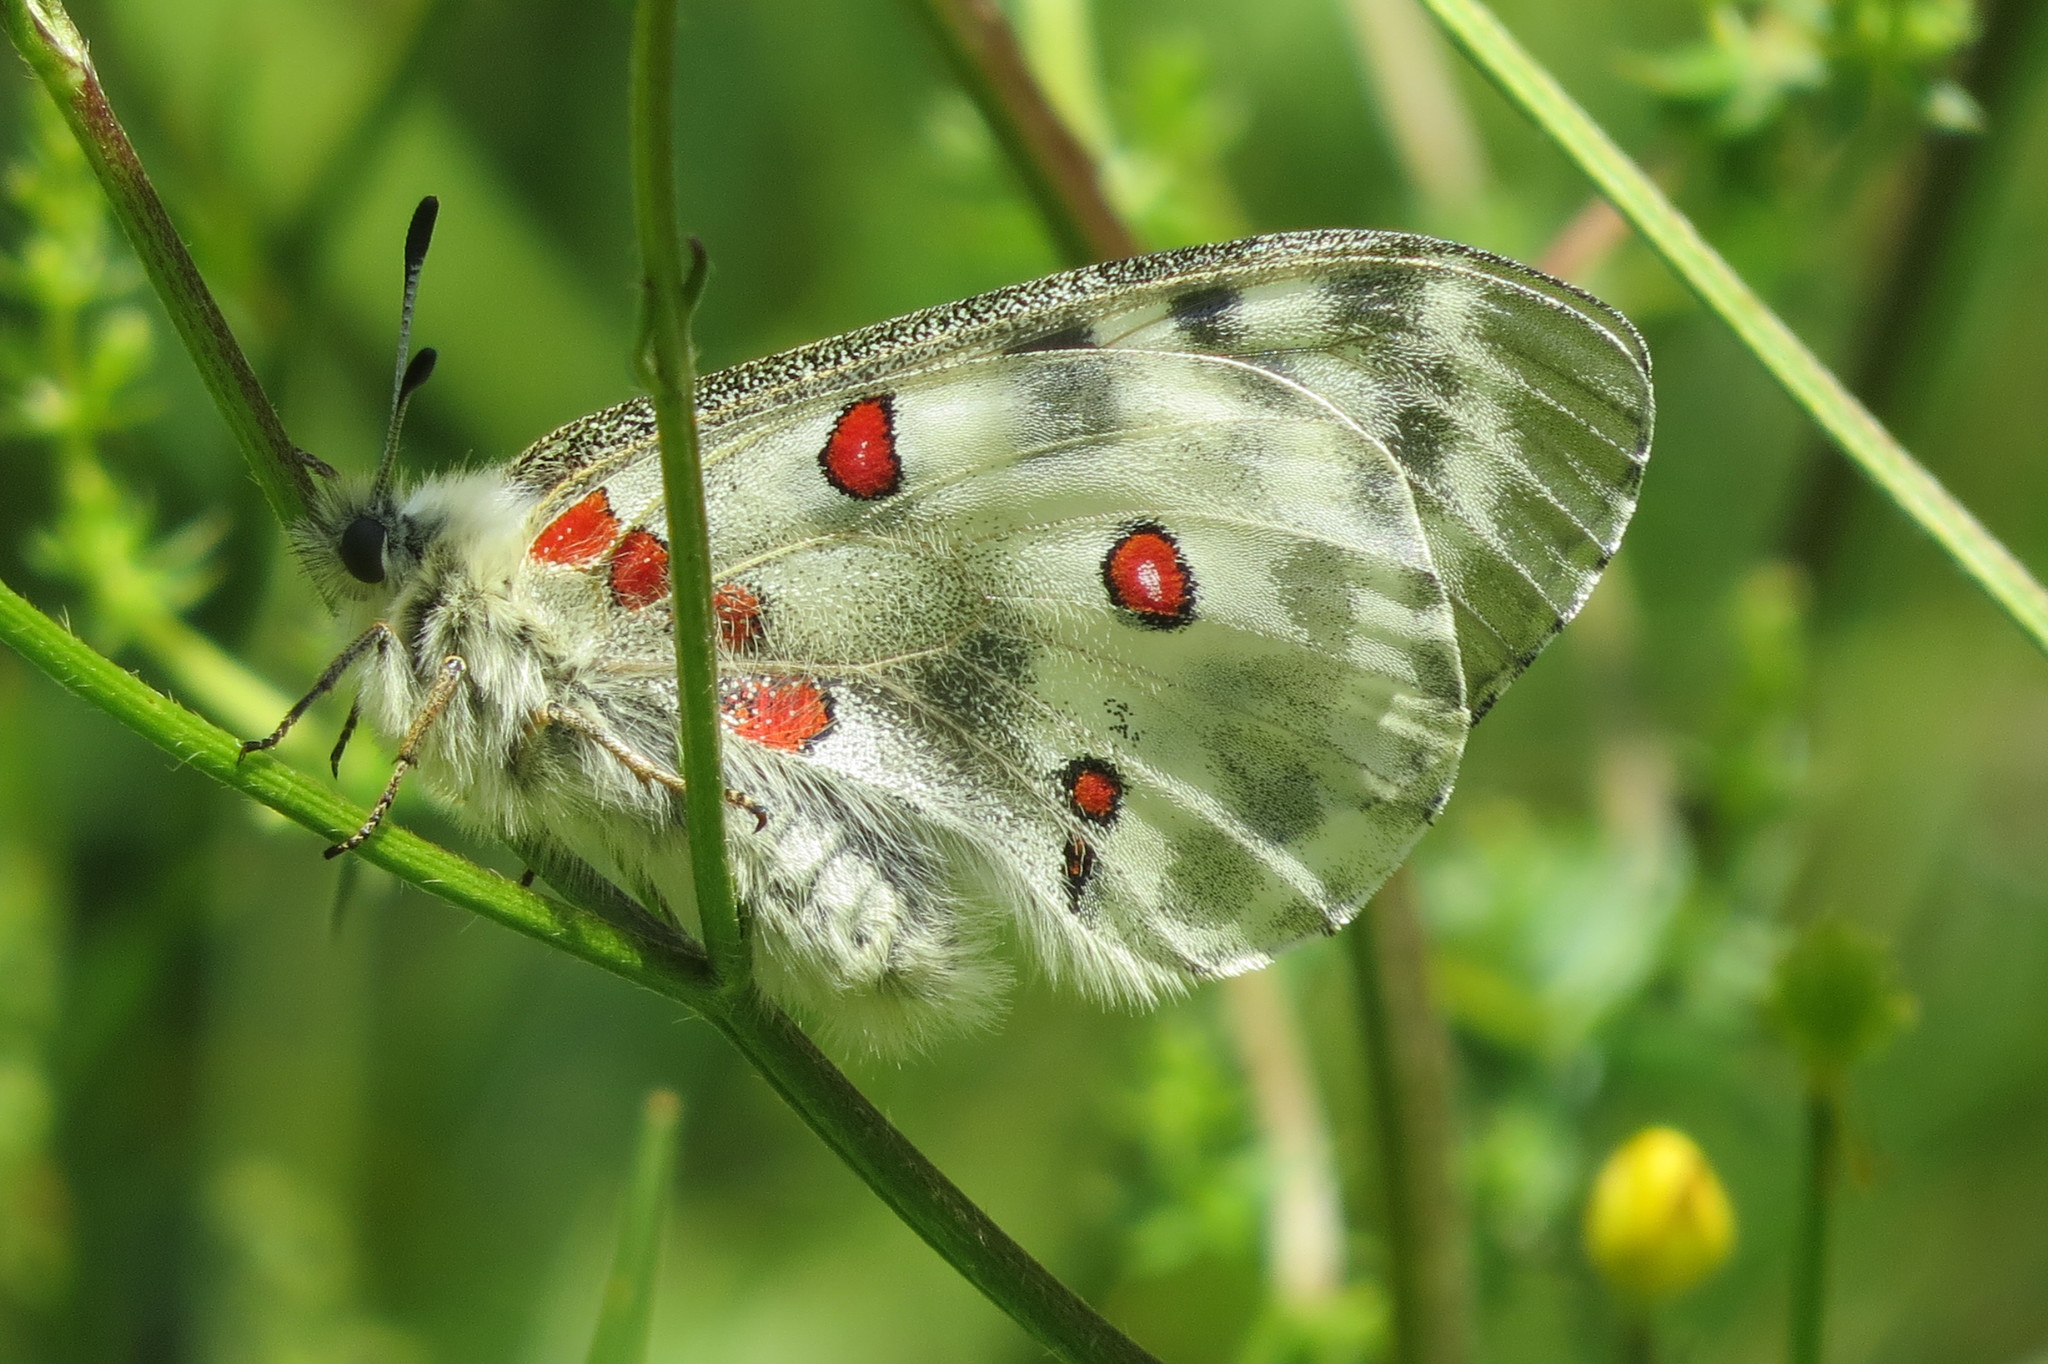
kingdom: Animalia
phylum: Arthropoda
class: Insecta
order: Lepidoptera
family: Papilionidae
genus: Parnassius
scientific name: Parnassius apollo
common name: Apollo
